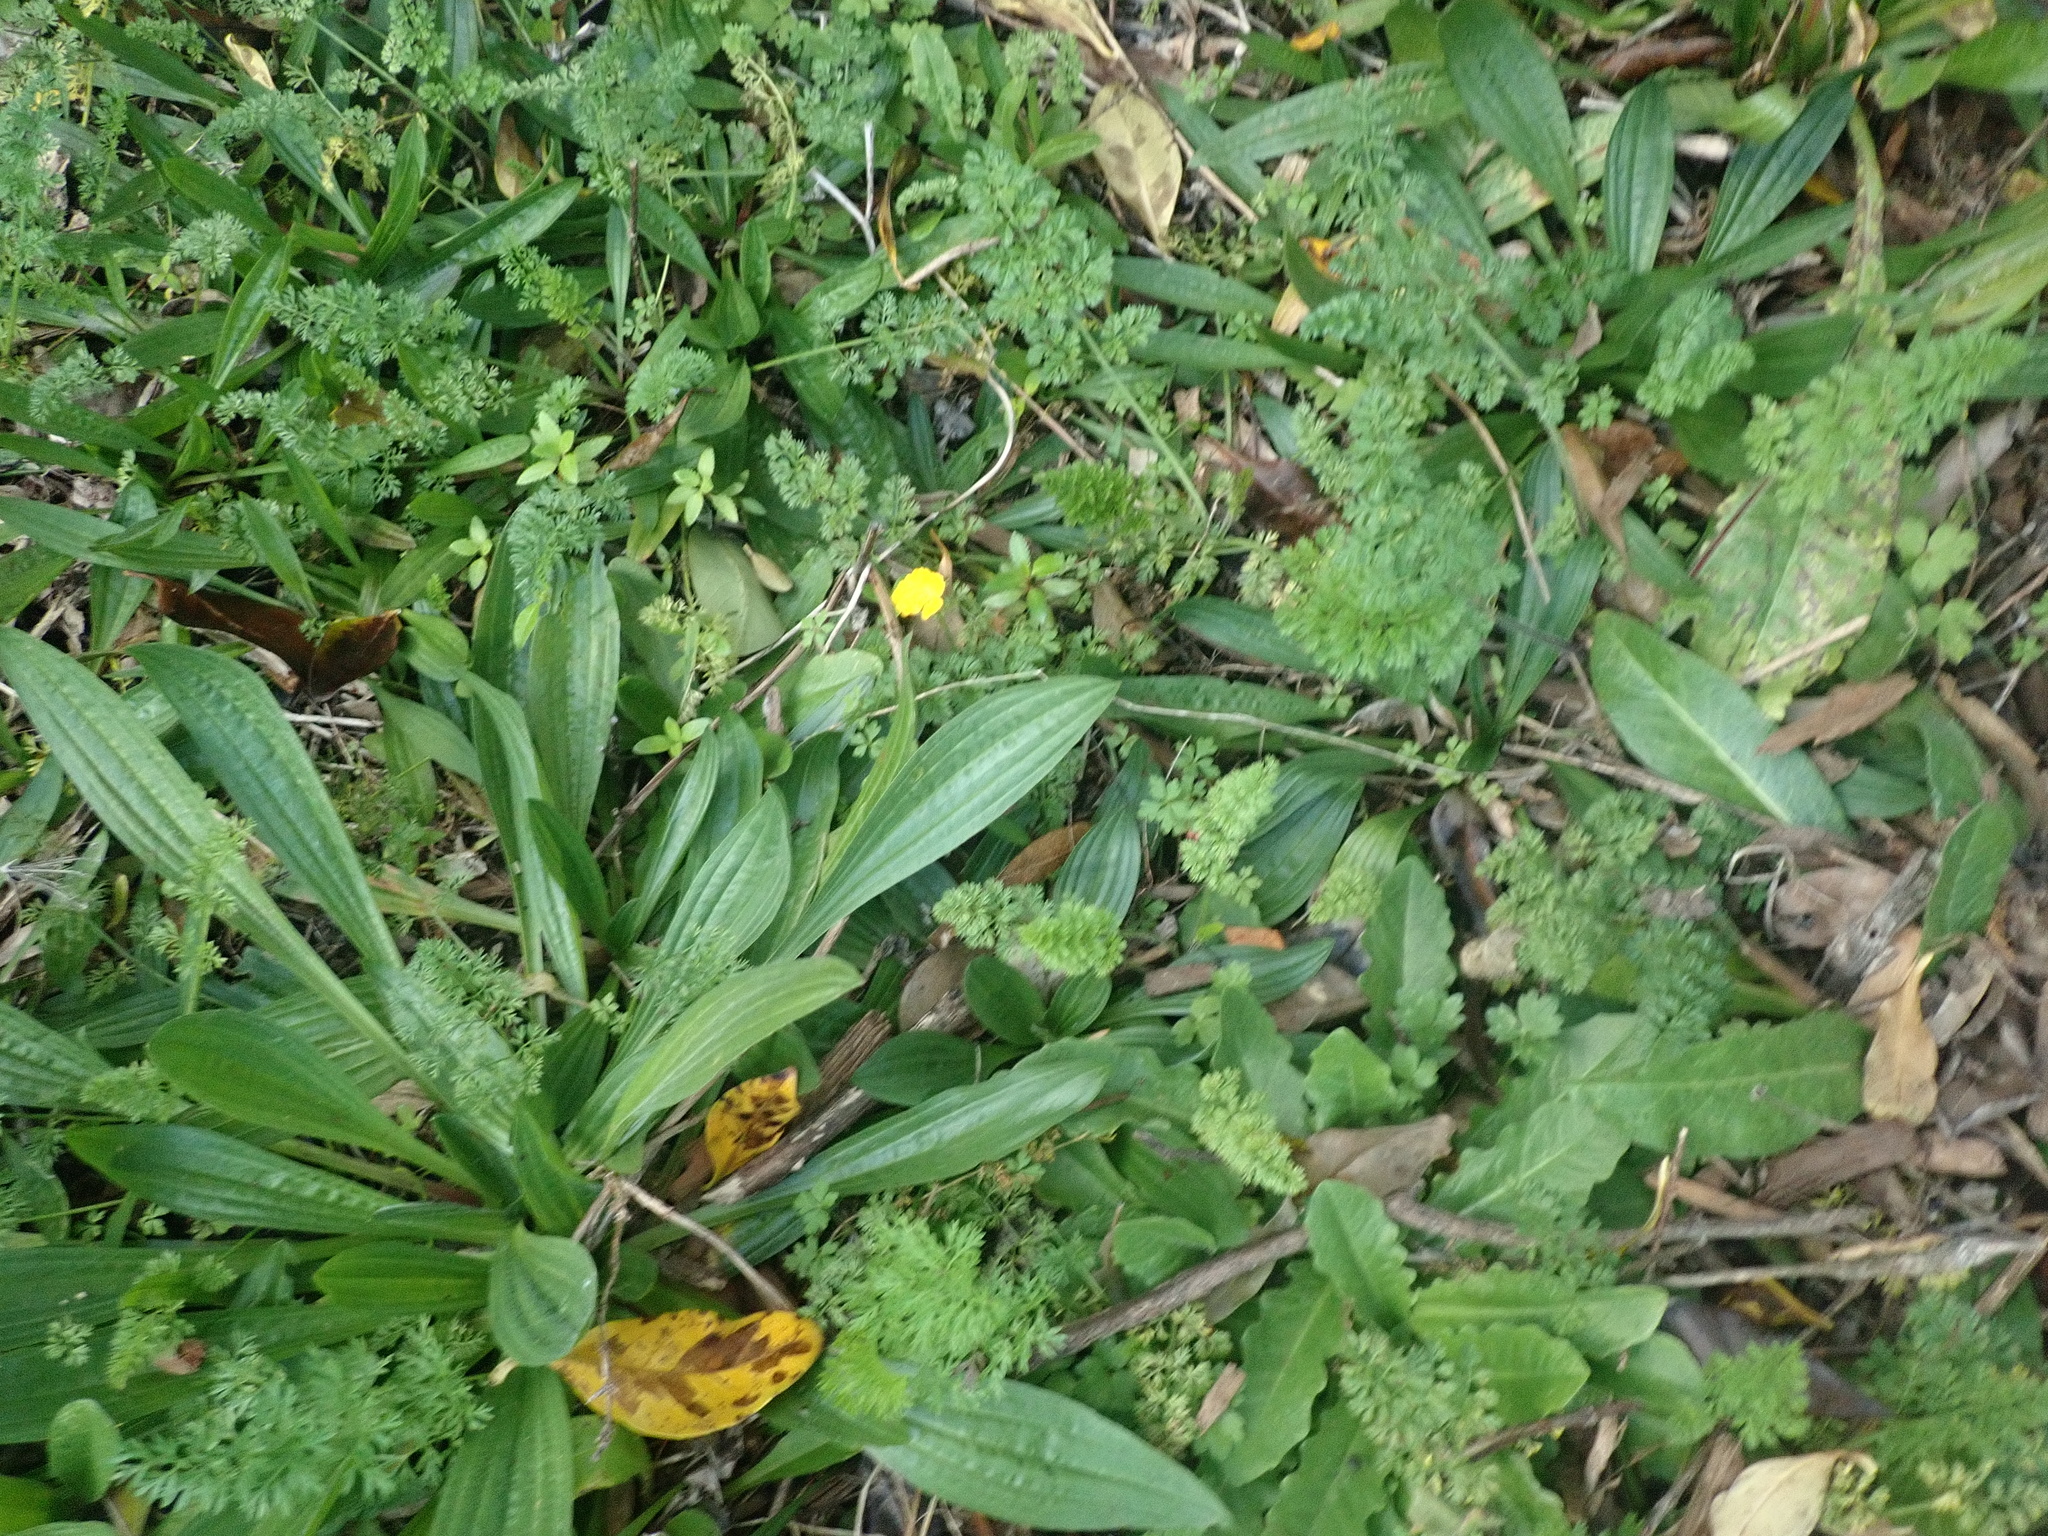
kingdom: Plantae
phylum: Tracheophyta
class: Magnoliopsida
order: Saxifragales
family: Haloragaceae
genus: Haloragis
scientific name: Haloragis erecta
